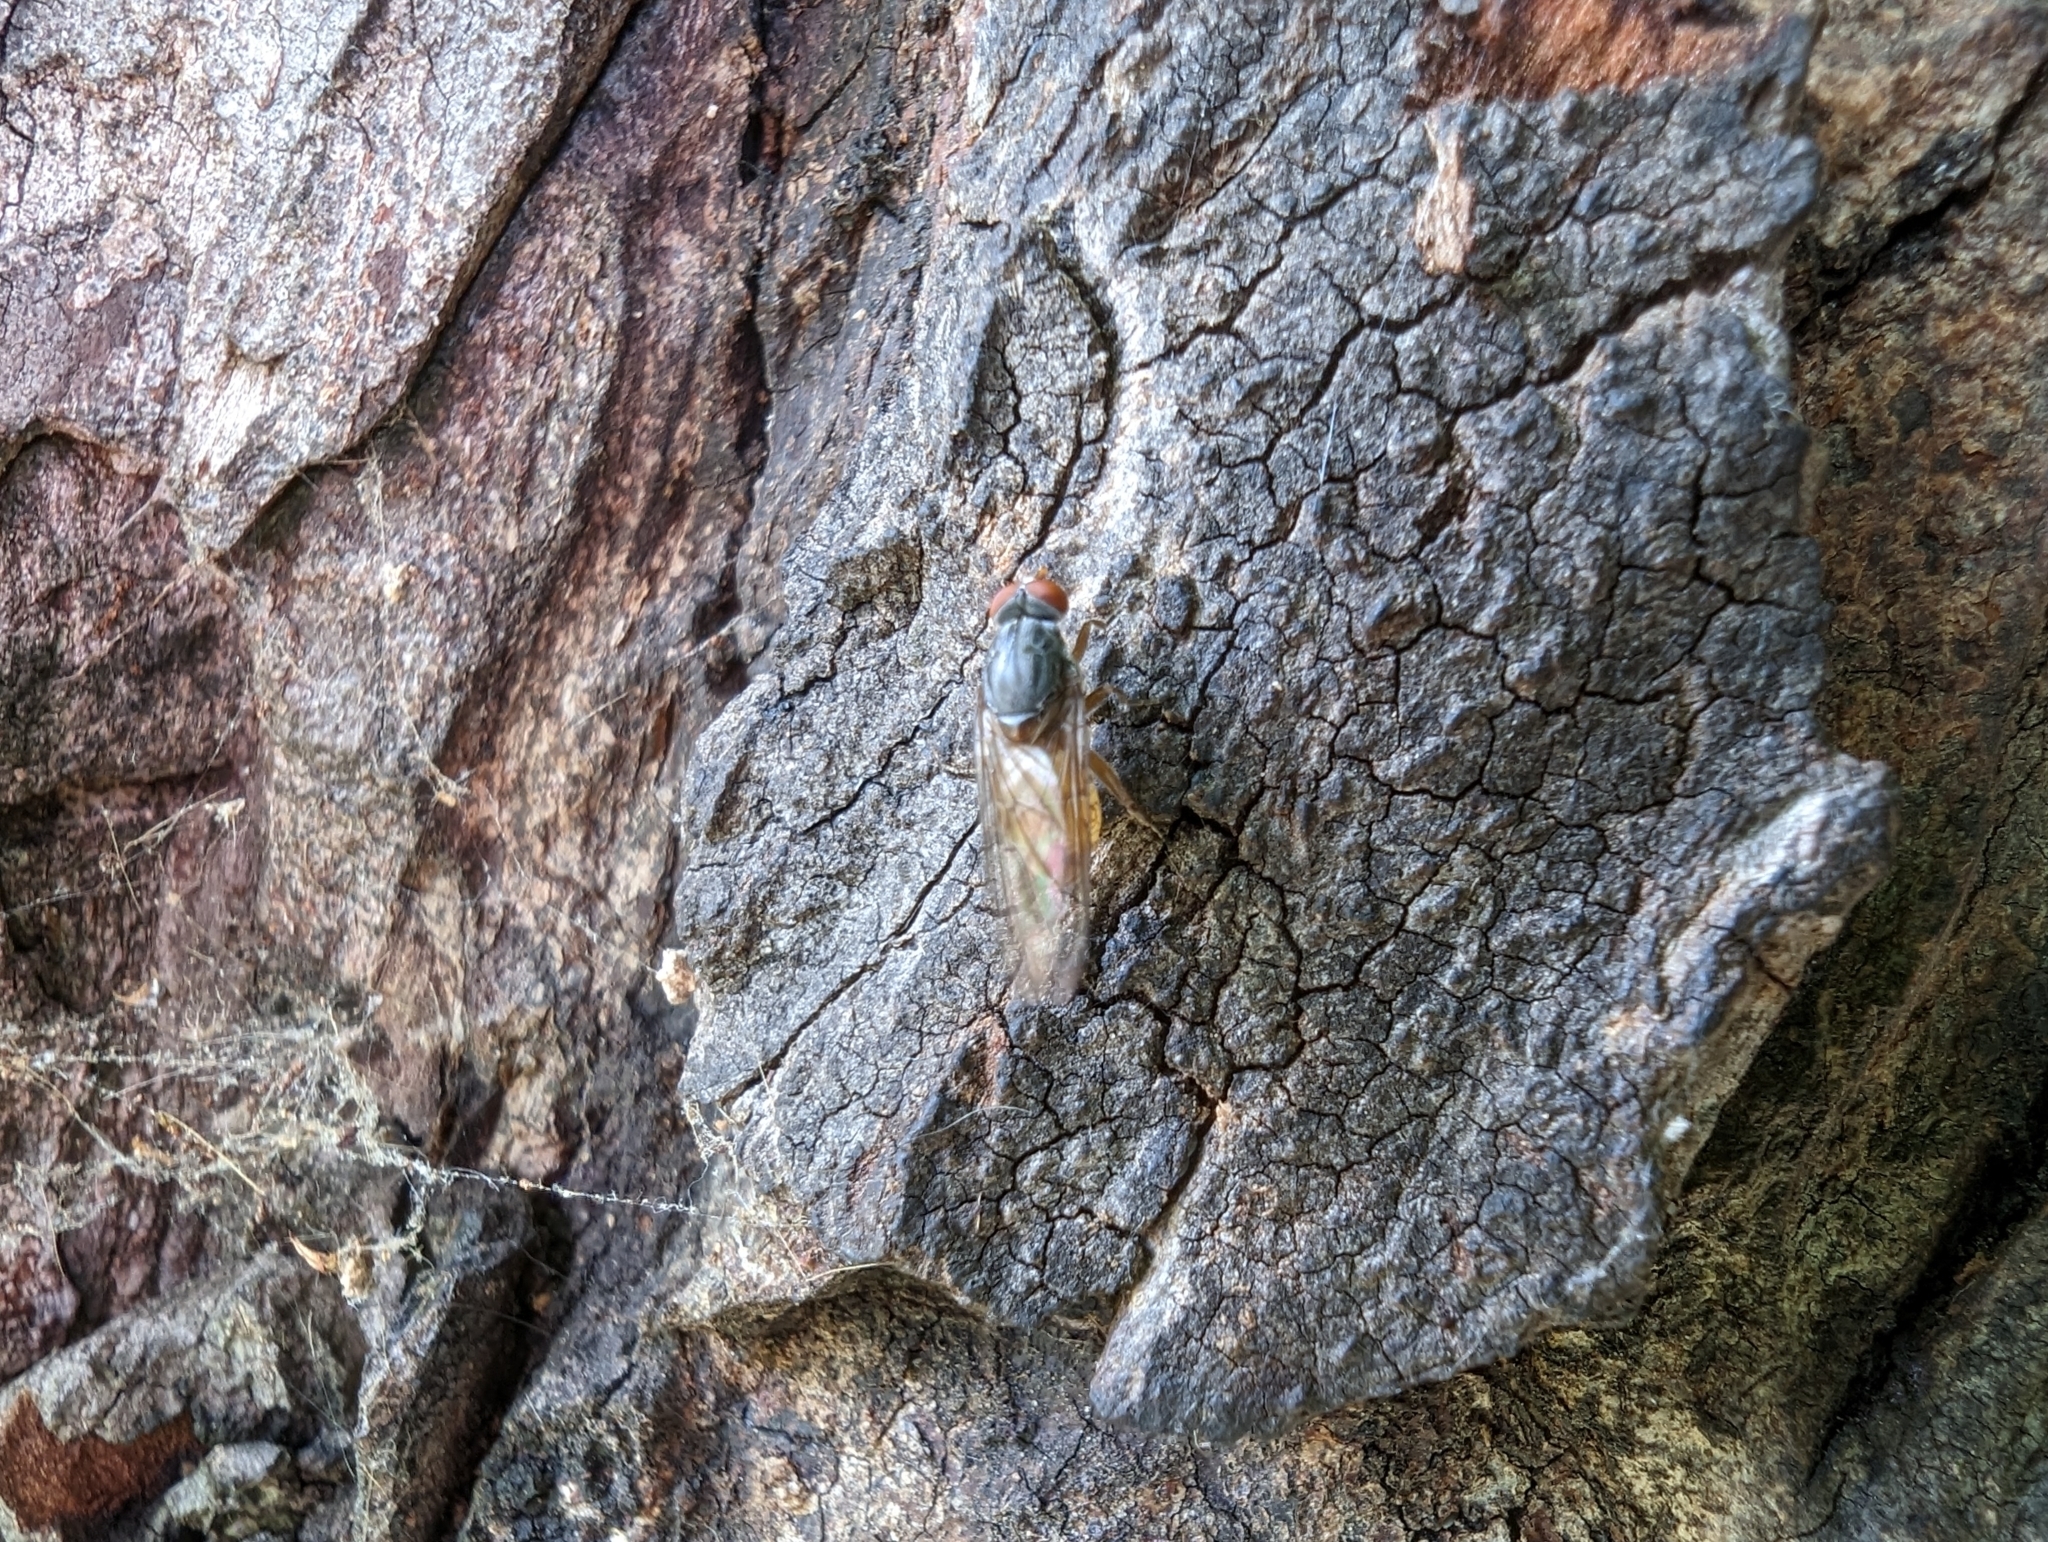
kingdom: Animalia
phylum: Arthropoda
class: Insecta
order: Diptera
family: Syrphidae
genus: Brachyopa
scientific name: Brachyopa
